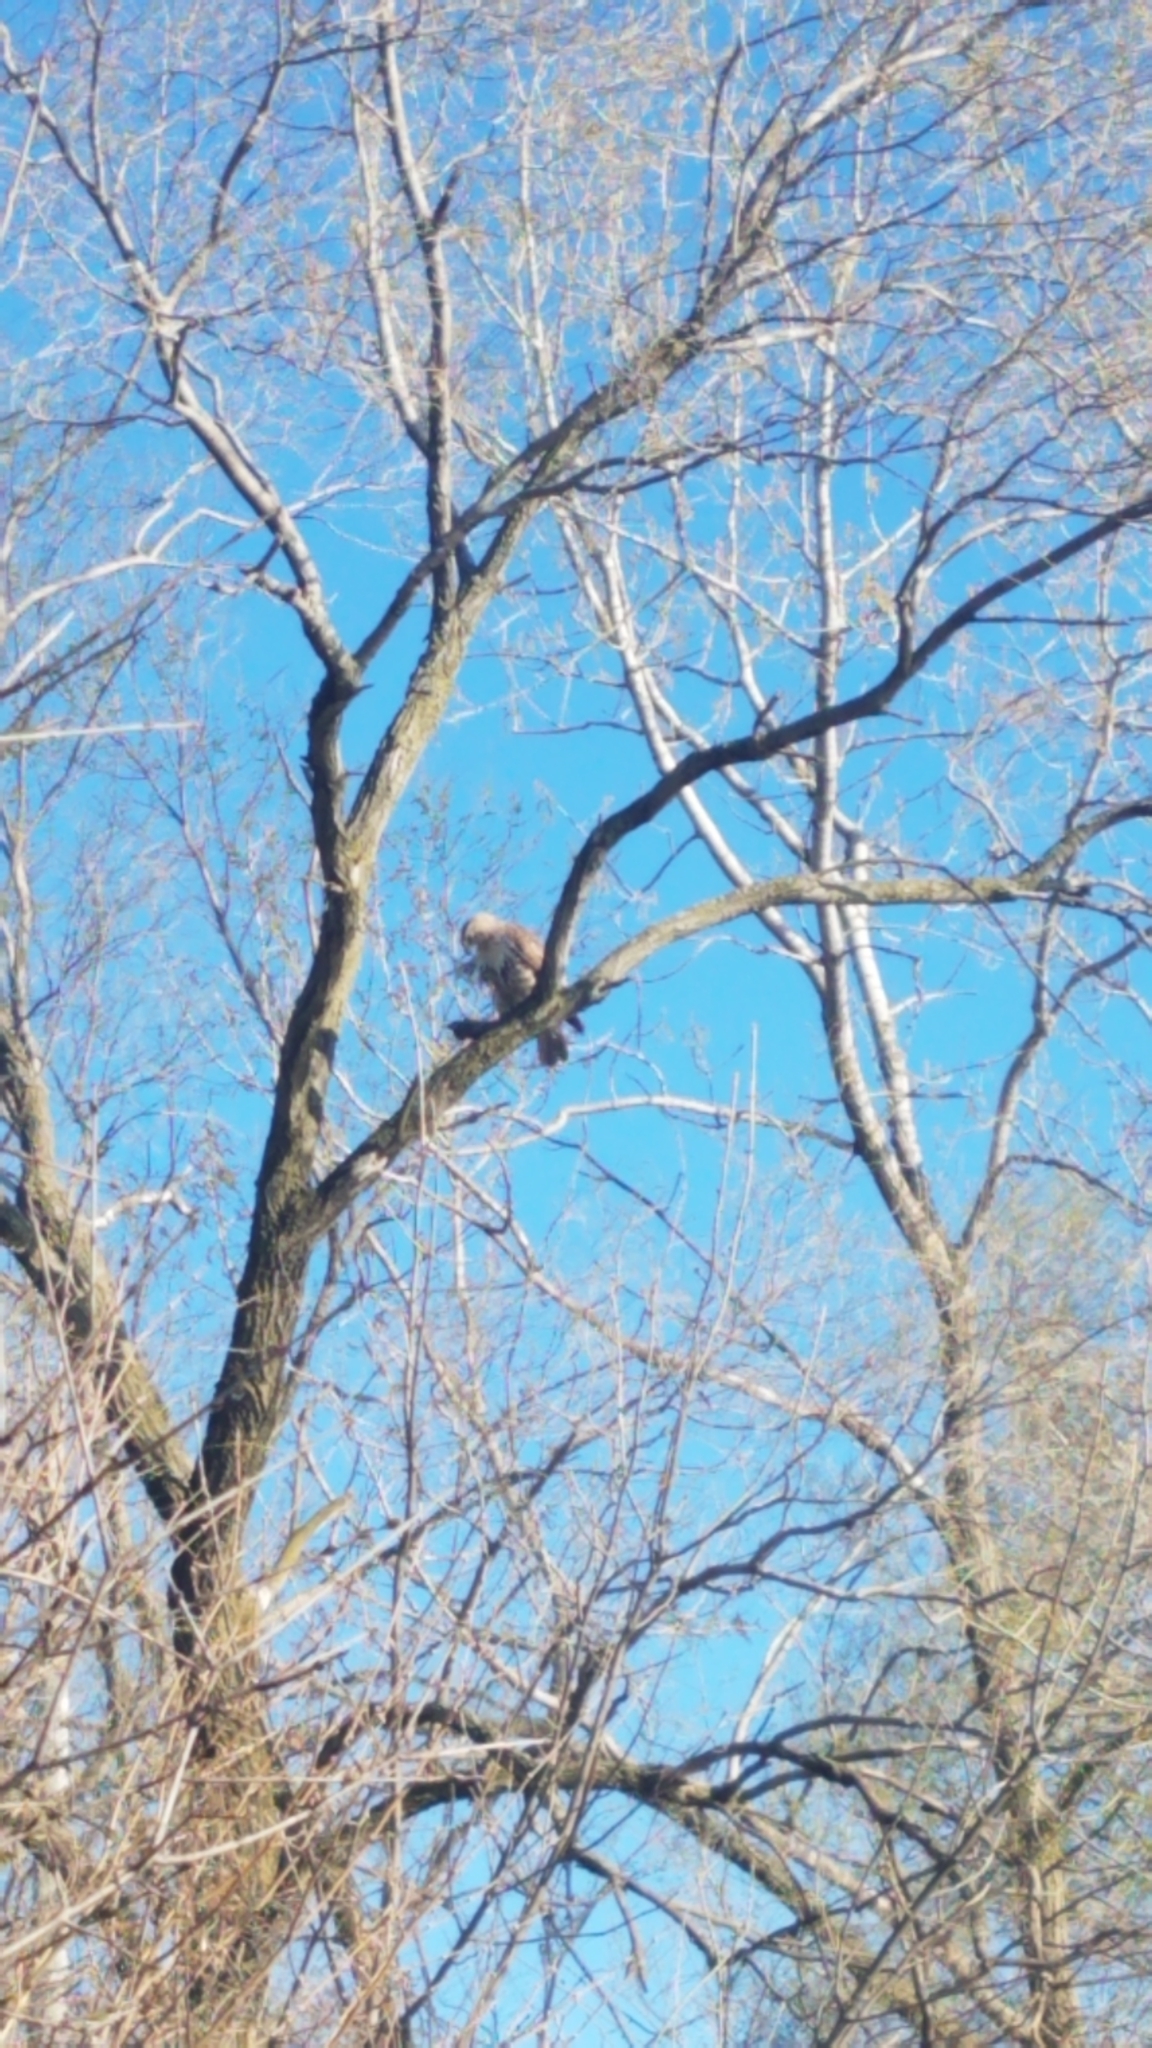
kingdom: Animalia
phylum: Chordata
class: Aves
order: Accipitriformes
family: Accipitridae
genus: Buteo
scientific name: Buteo jamaicensis
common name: Red-tailed hawk
